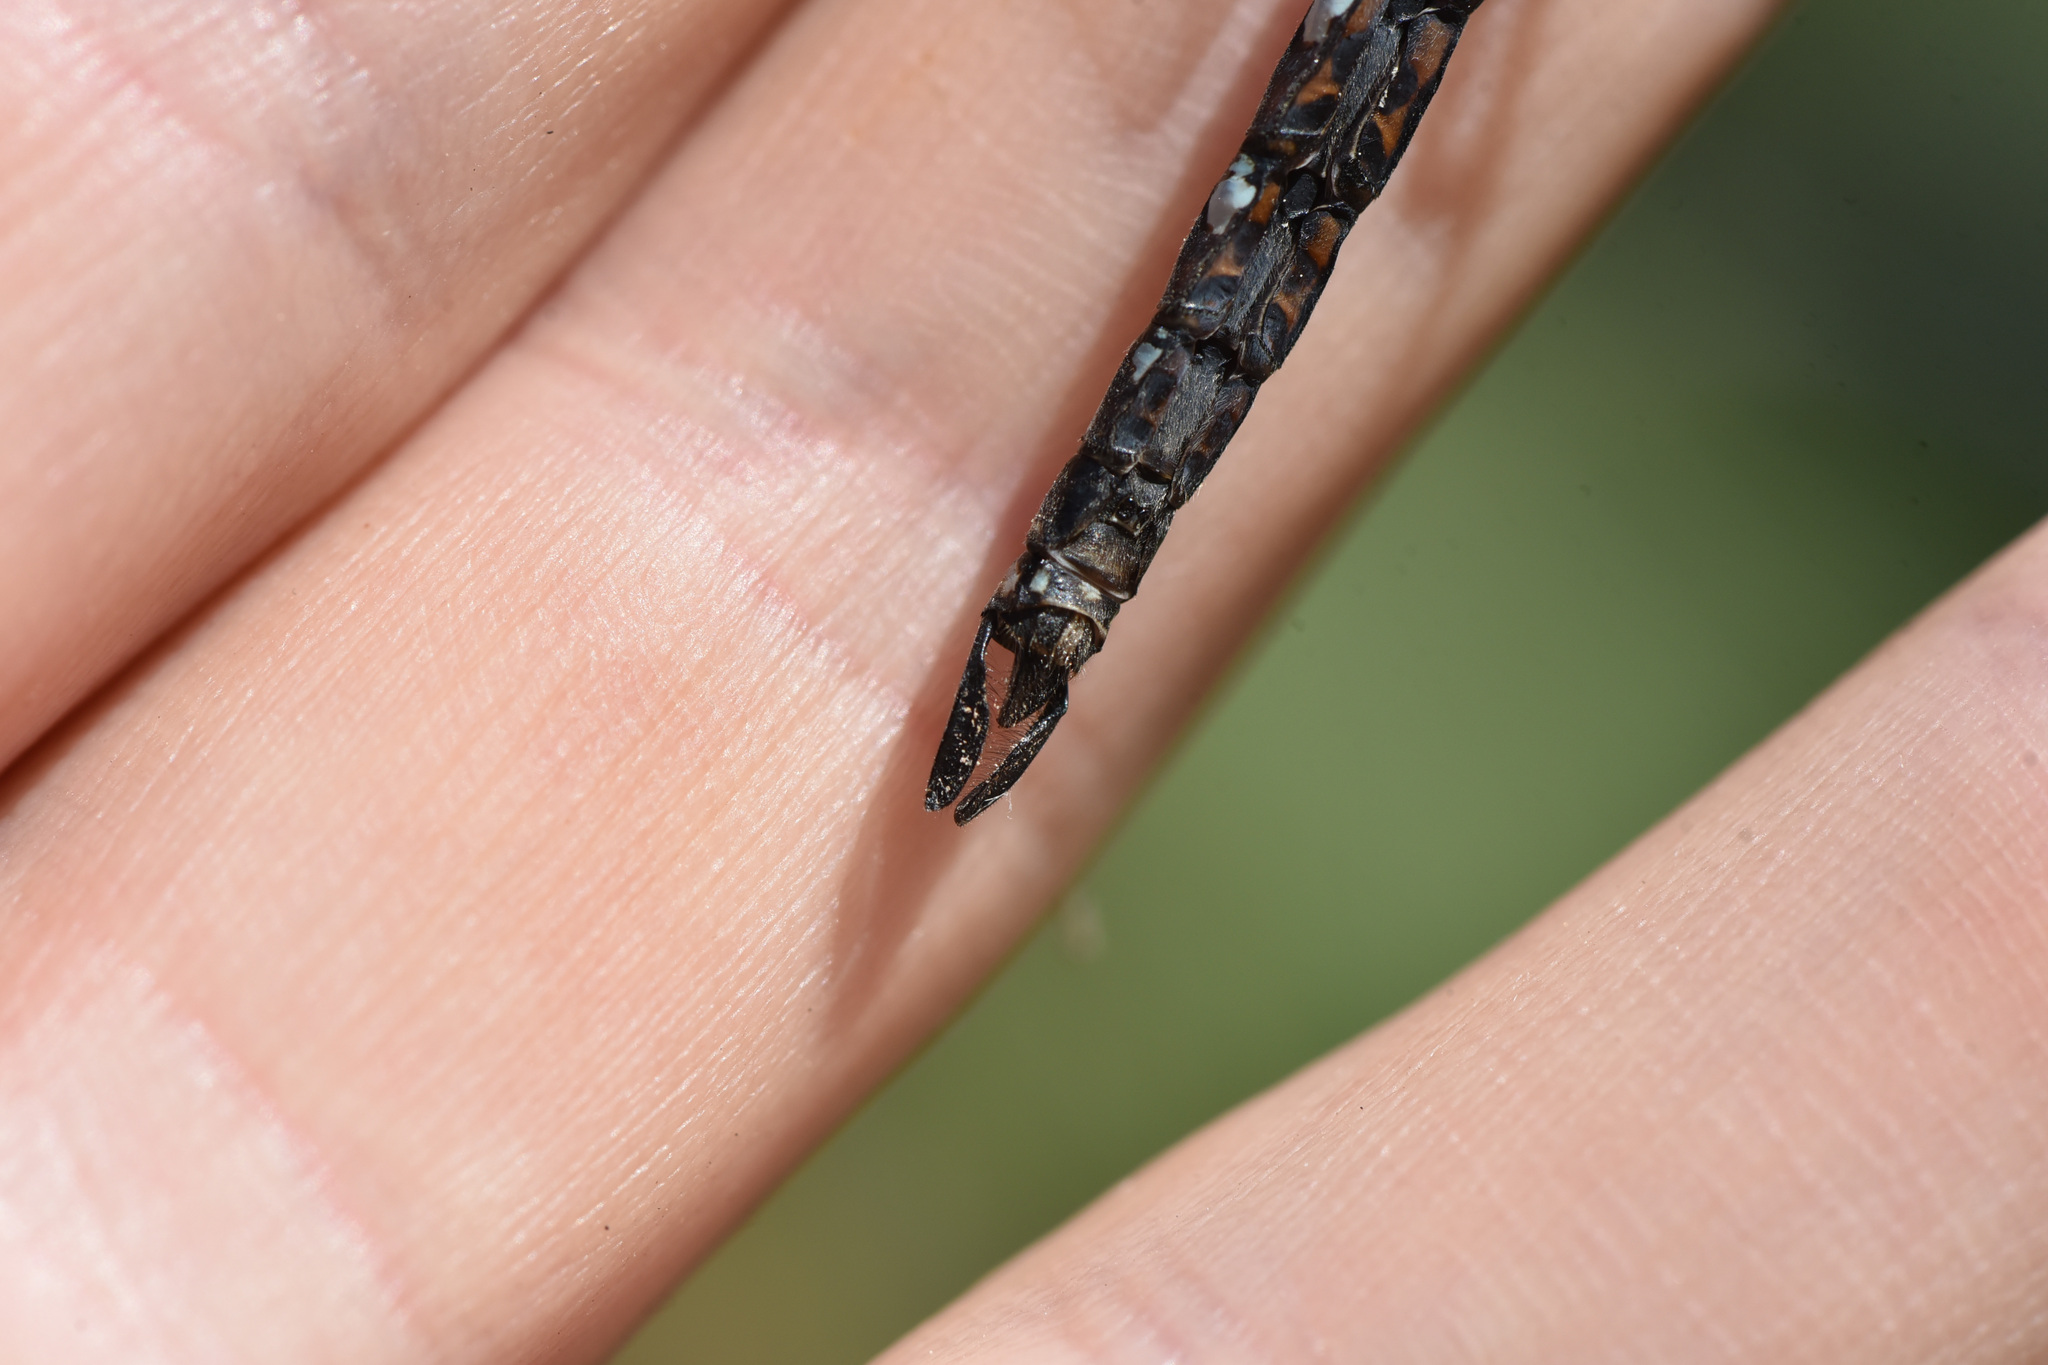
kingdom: Animalia
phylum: Arthropoda
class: Insecta
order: Odonata
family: Aeshnidae
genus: Rhionaeschna
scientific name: Rhionaeschna californica
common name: California darner
